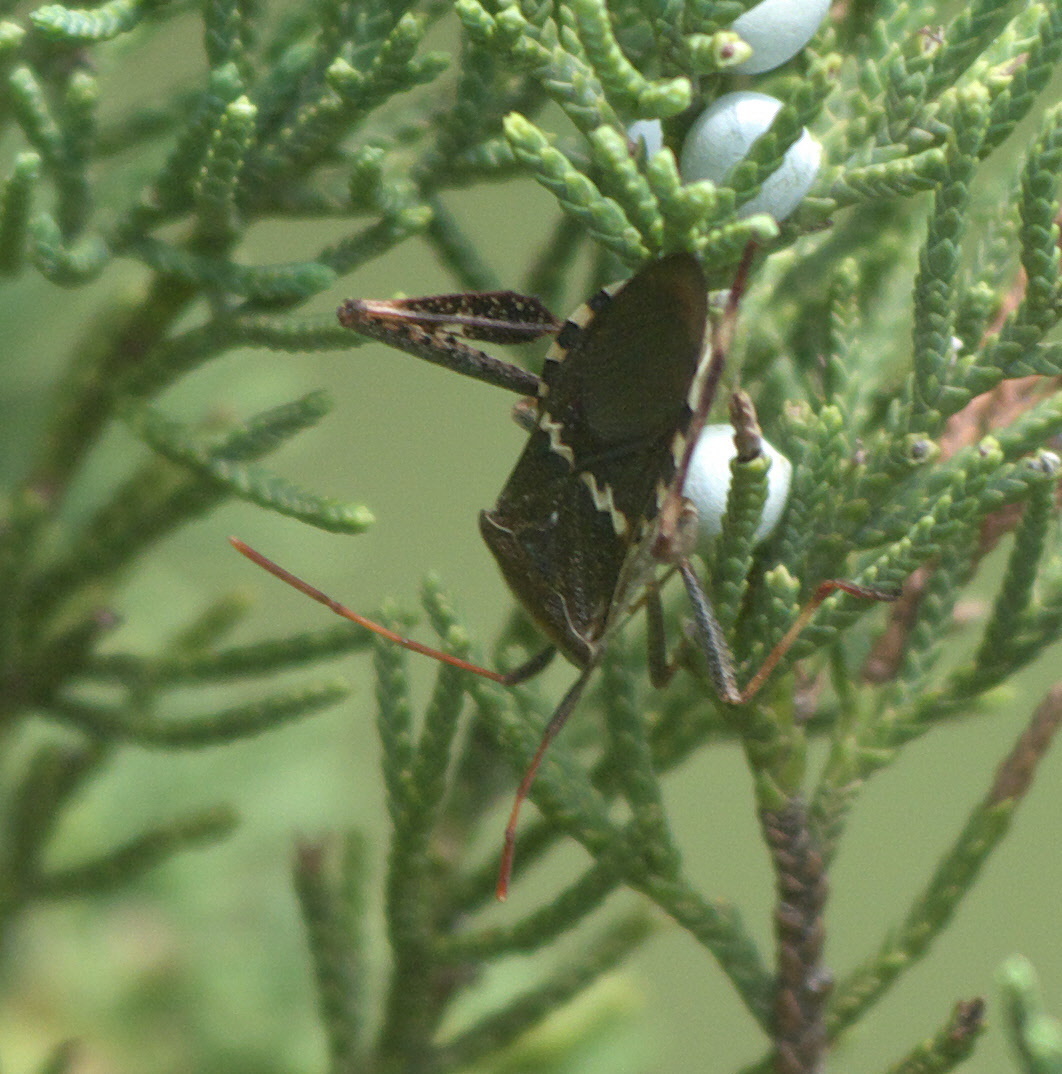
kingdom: Animalia
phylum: Arthropoda
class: Insecta
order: Hemiptera
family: Coreidae
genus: Leptoglossus
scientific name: Leptoglossus clypealis
